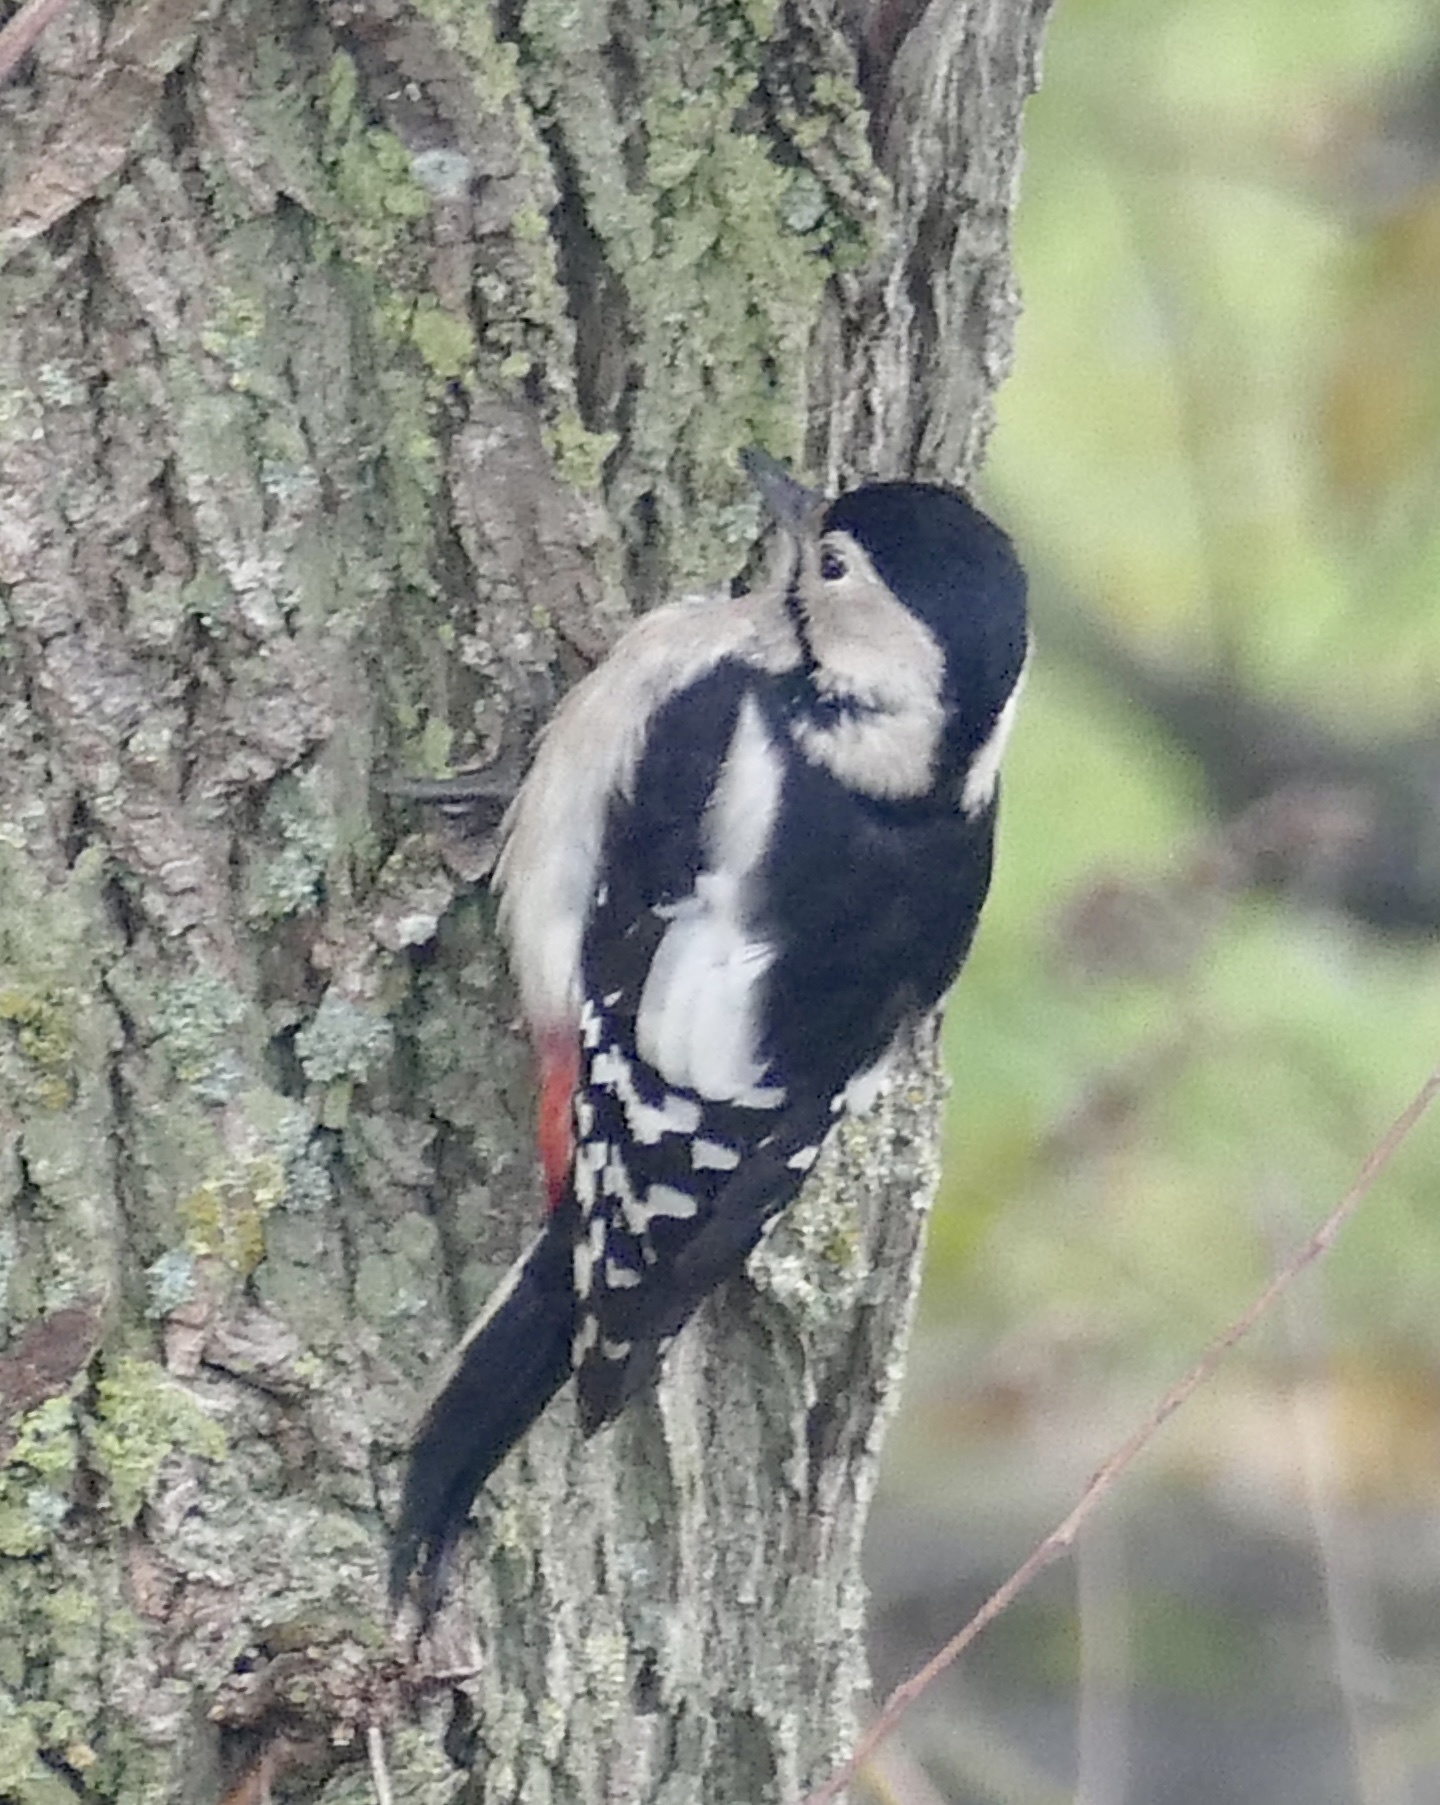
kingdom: Animalia
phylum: Chordata
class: Aves
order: Piciformes
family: Picidae
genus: Dendrocopos
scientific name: Dendrocopos major
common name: Great spotted woodpecker
